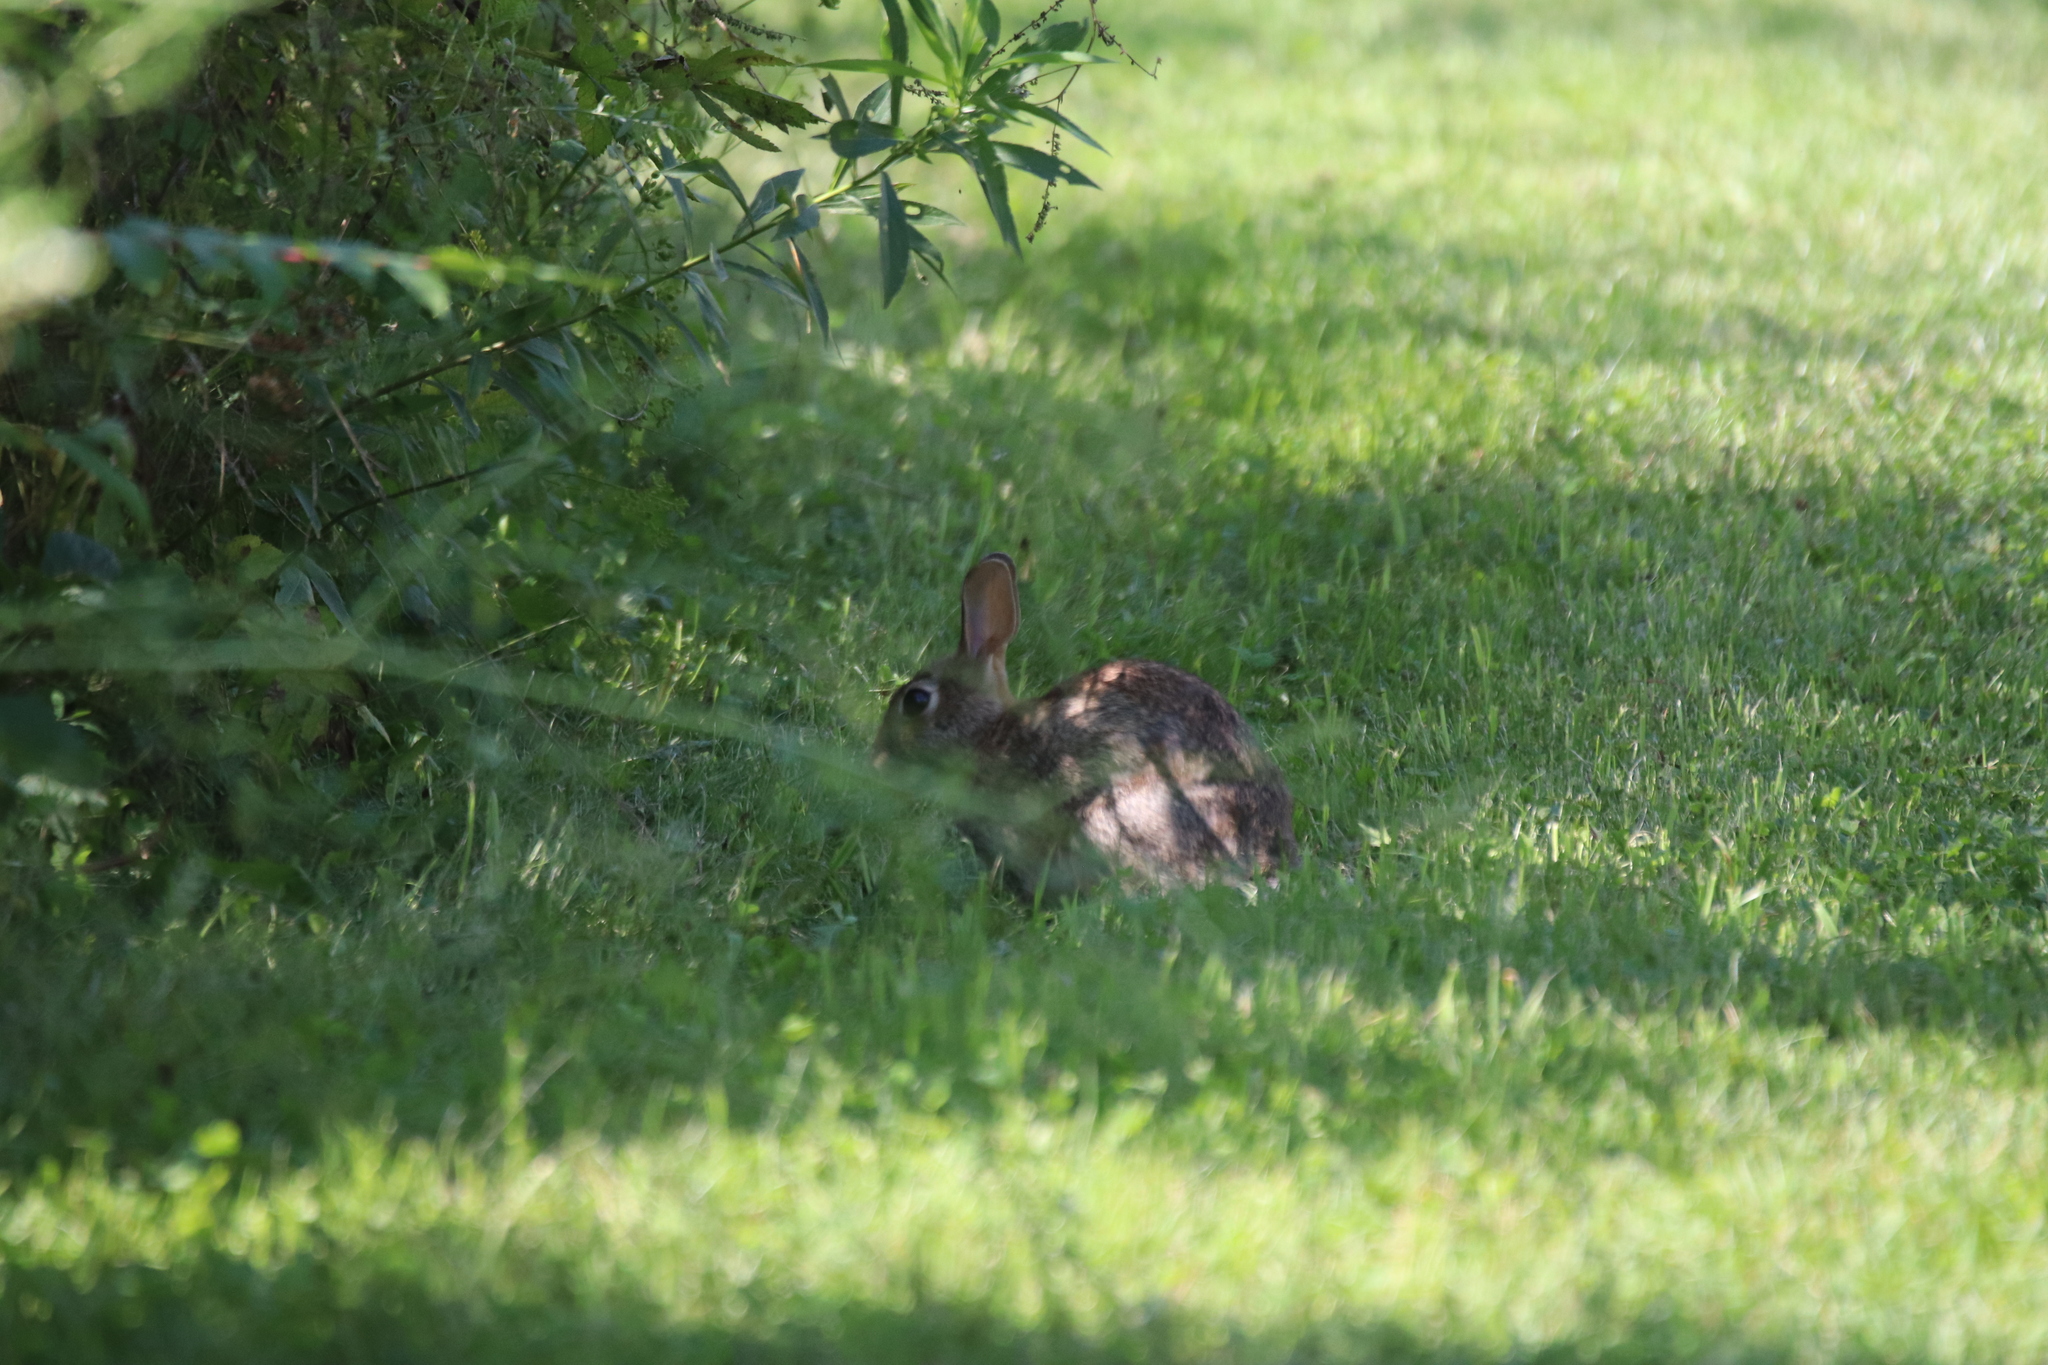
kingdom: Animalia
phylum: Chordata
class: Mammalia
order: Lagomorpha
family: Leporidae
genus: Sylvilagus
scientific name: Sylvilagus floridanus
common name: Eastern cottontail
